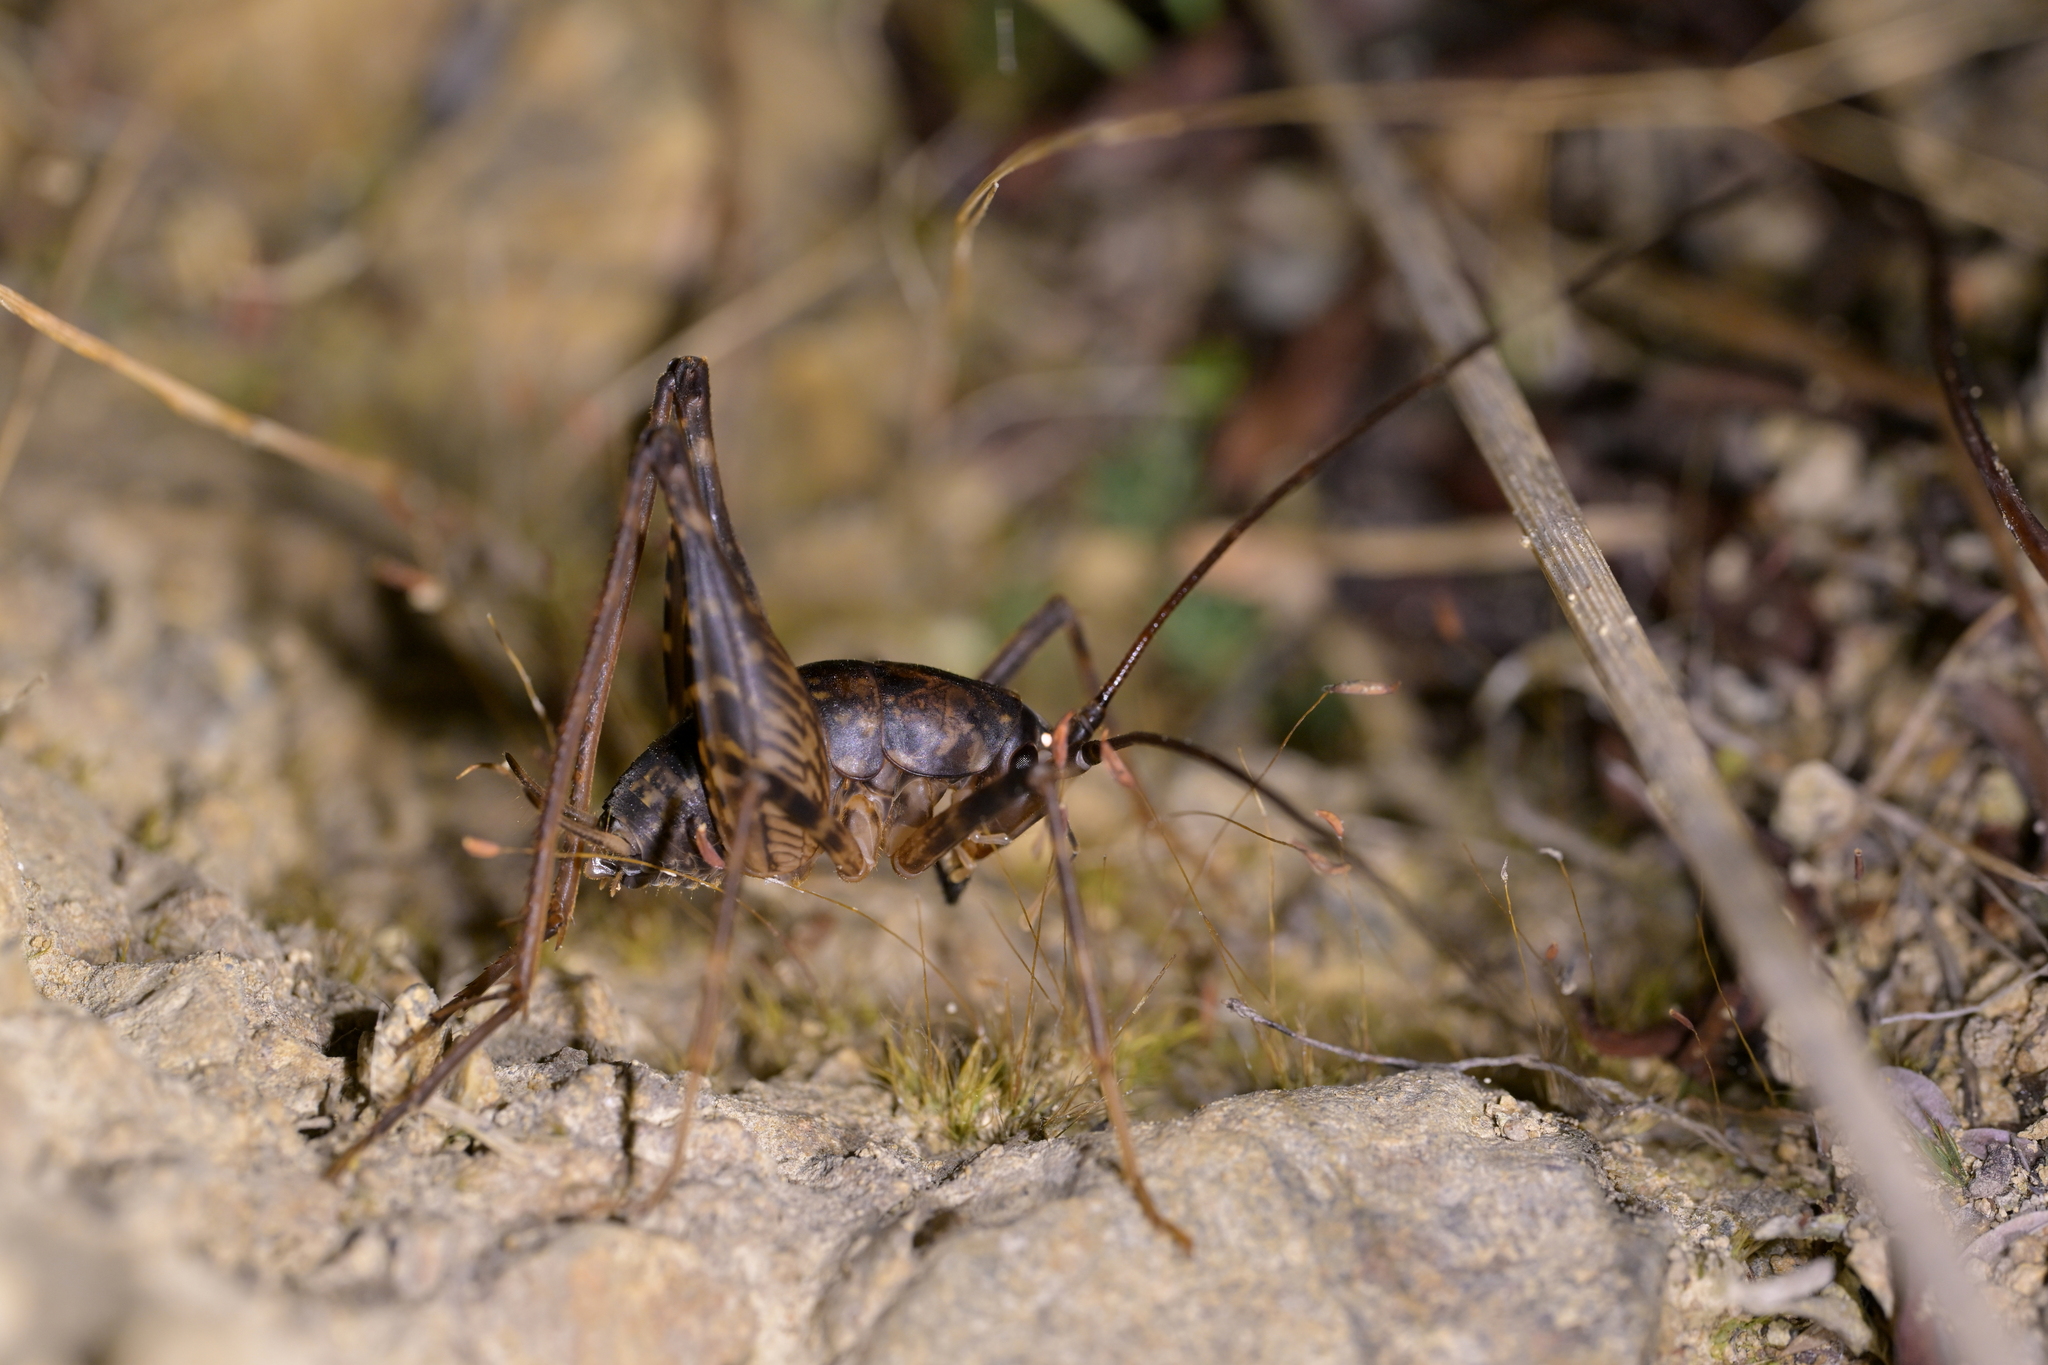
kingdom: Animalia
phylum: Arthropoda
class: Insecta
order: Orthoptera
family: Rhaphidophoridae
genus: Miotopus
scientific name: Miotopus diversus
